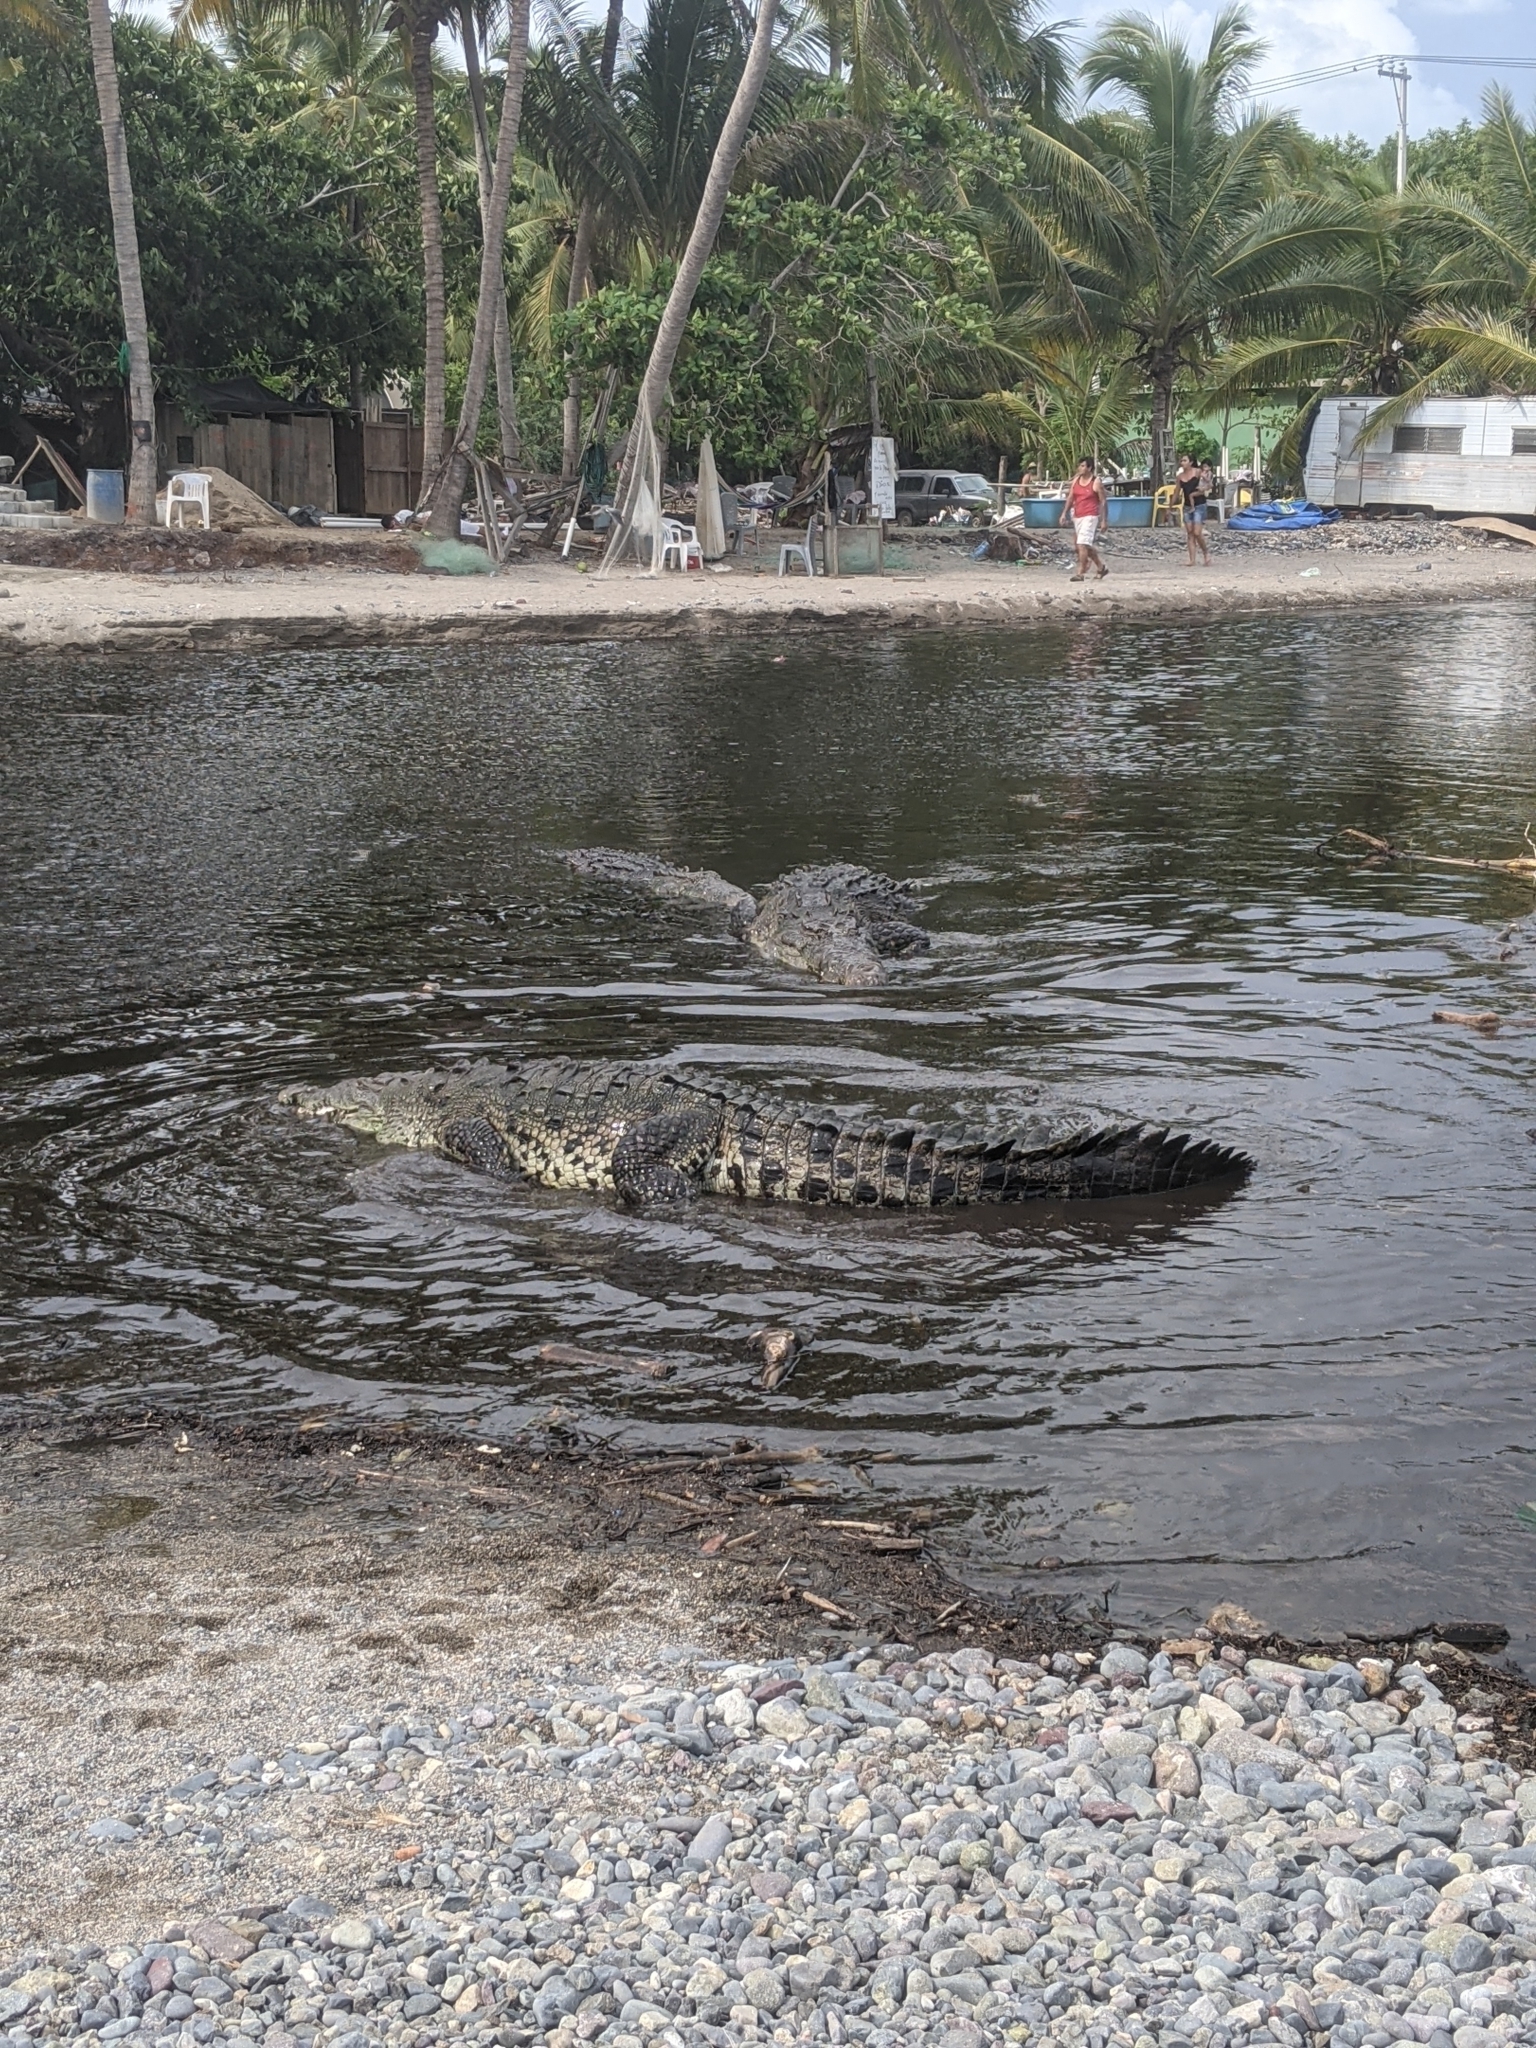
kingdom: Animalia
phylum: Chordata
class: Crocodylia
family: Crocodylidae
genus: Crocodylus
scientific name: Crocodylus acutus
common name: American crocodile
